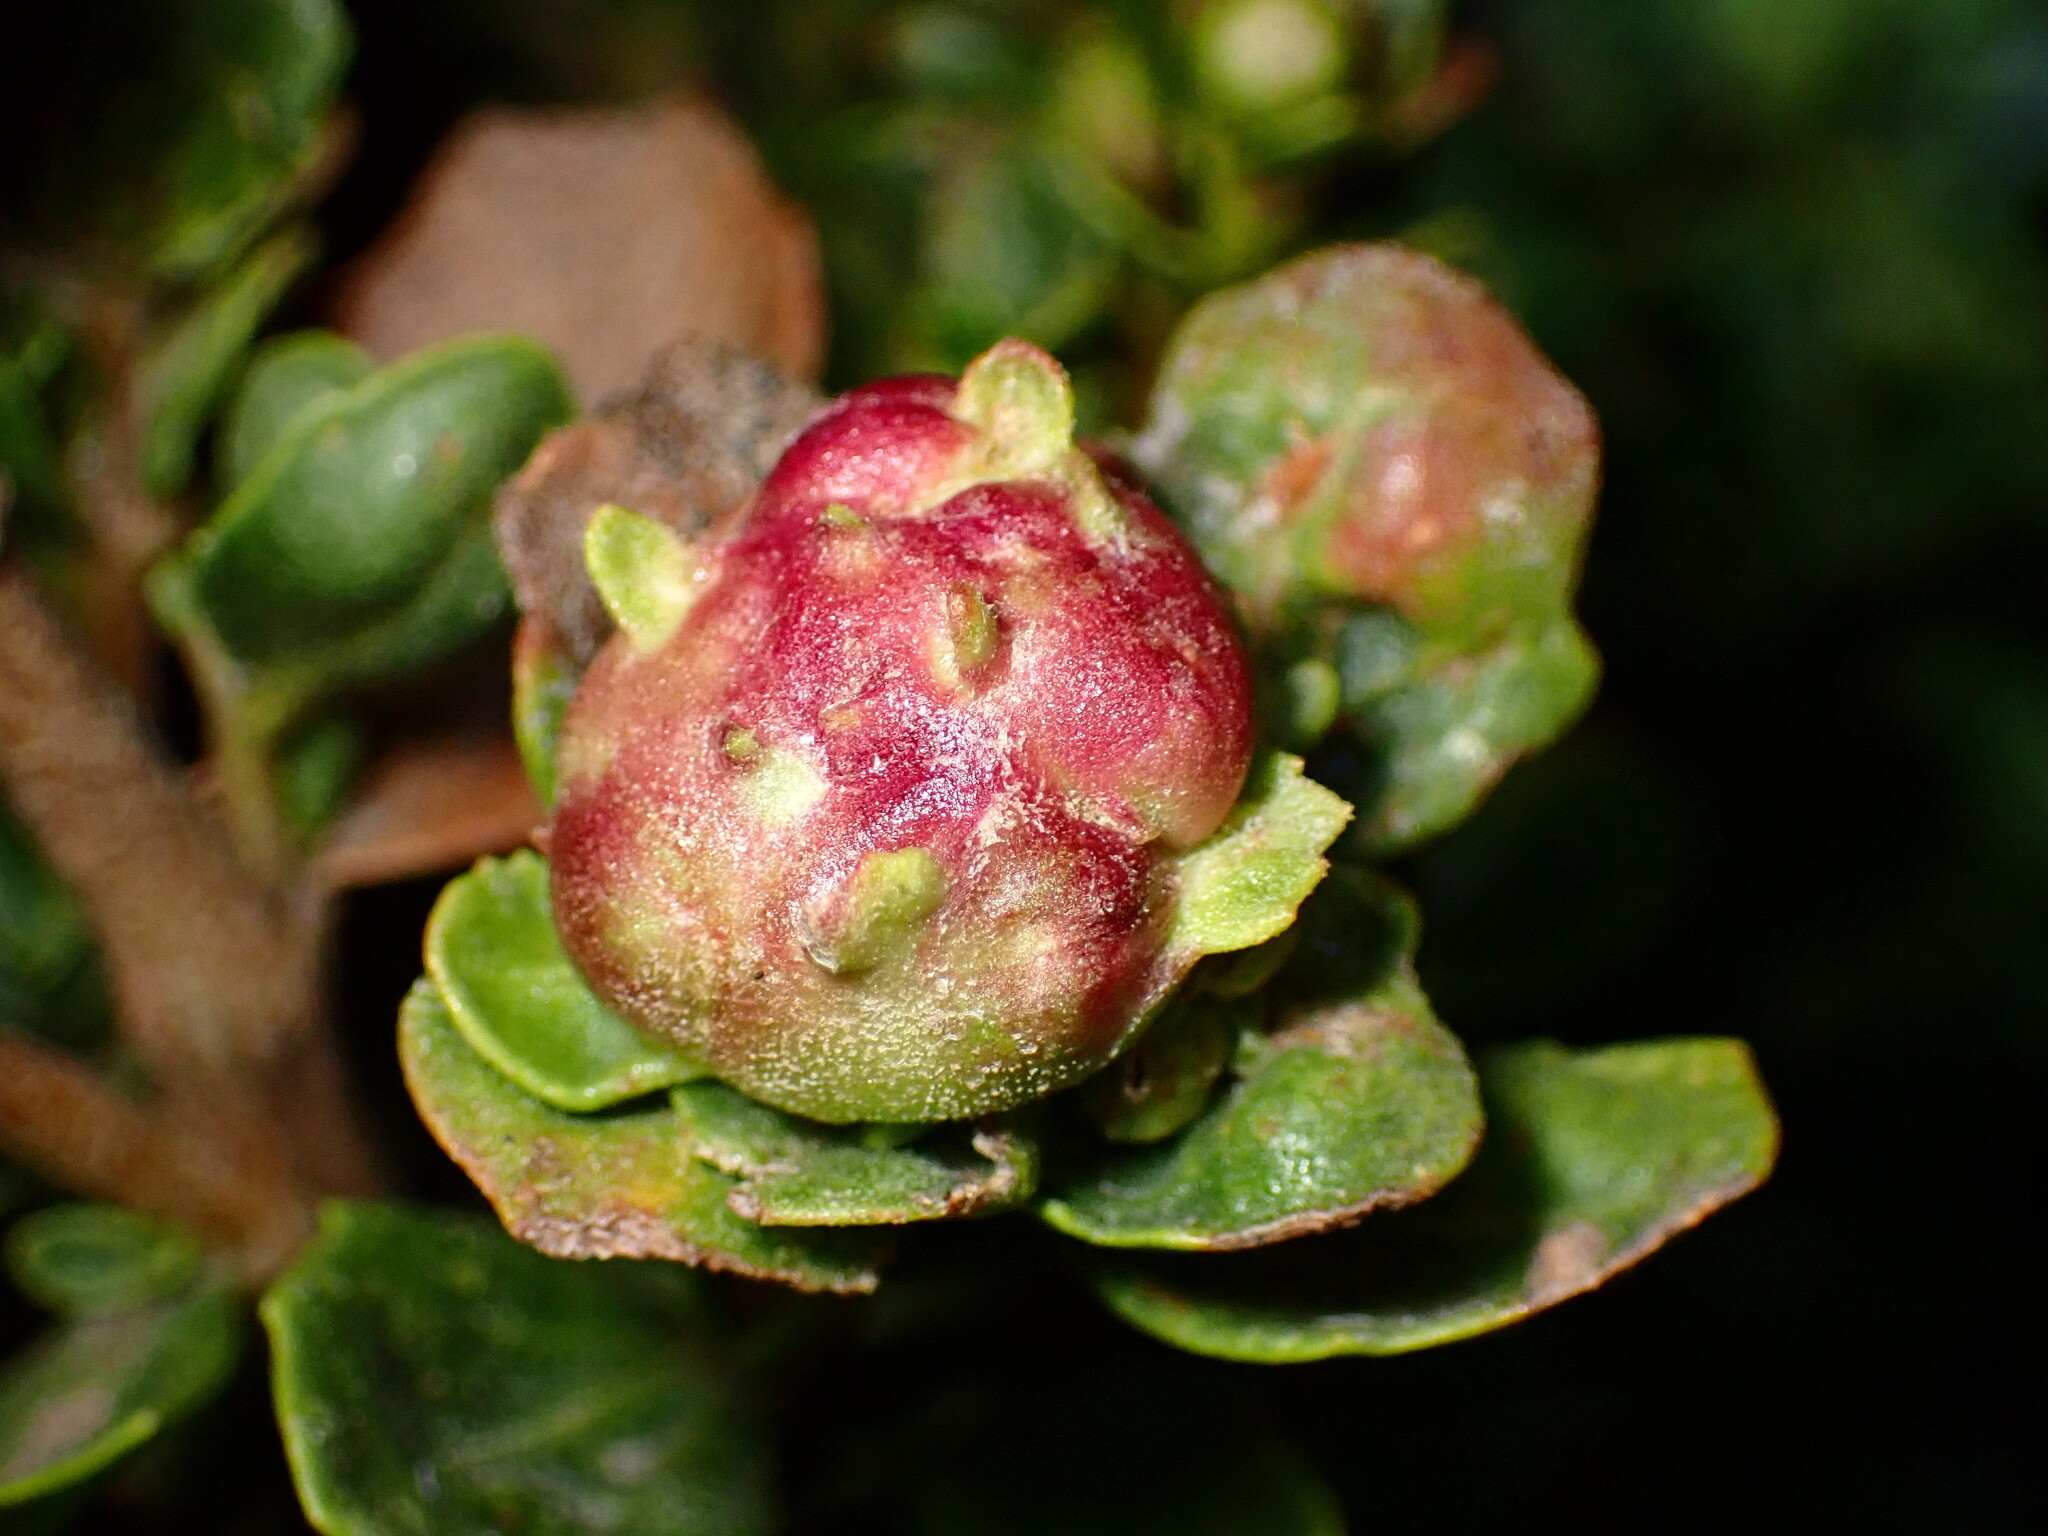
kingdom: Animalia
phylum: Arthropoda
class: Insecta
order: Diptera
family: Cecidomyiidae
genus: Rhopalomyia
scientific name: Rhopalomyia californica
